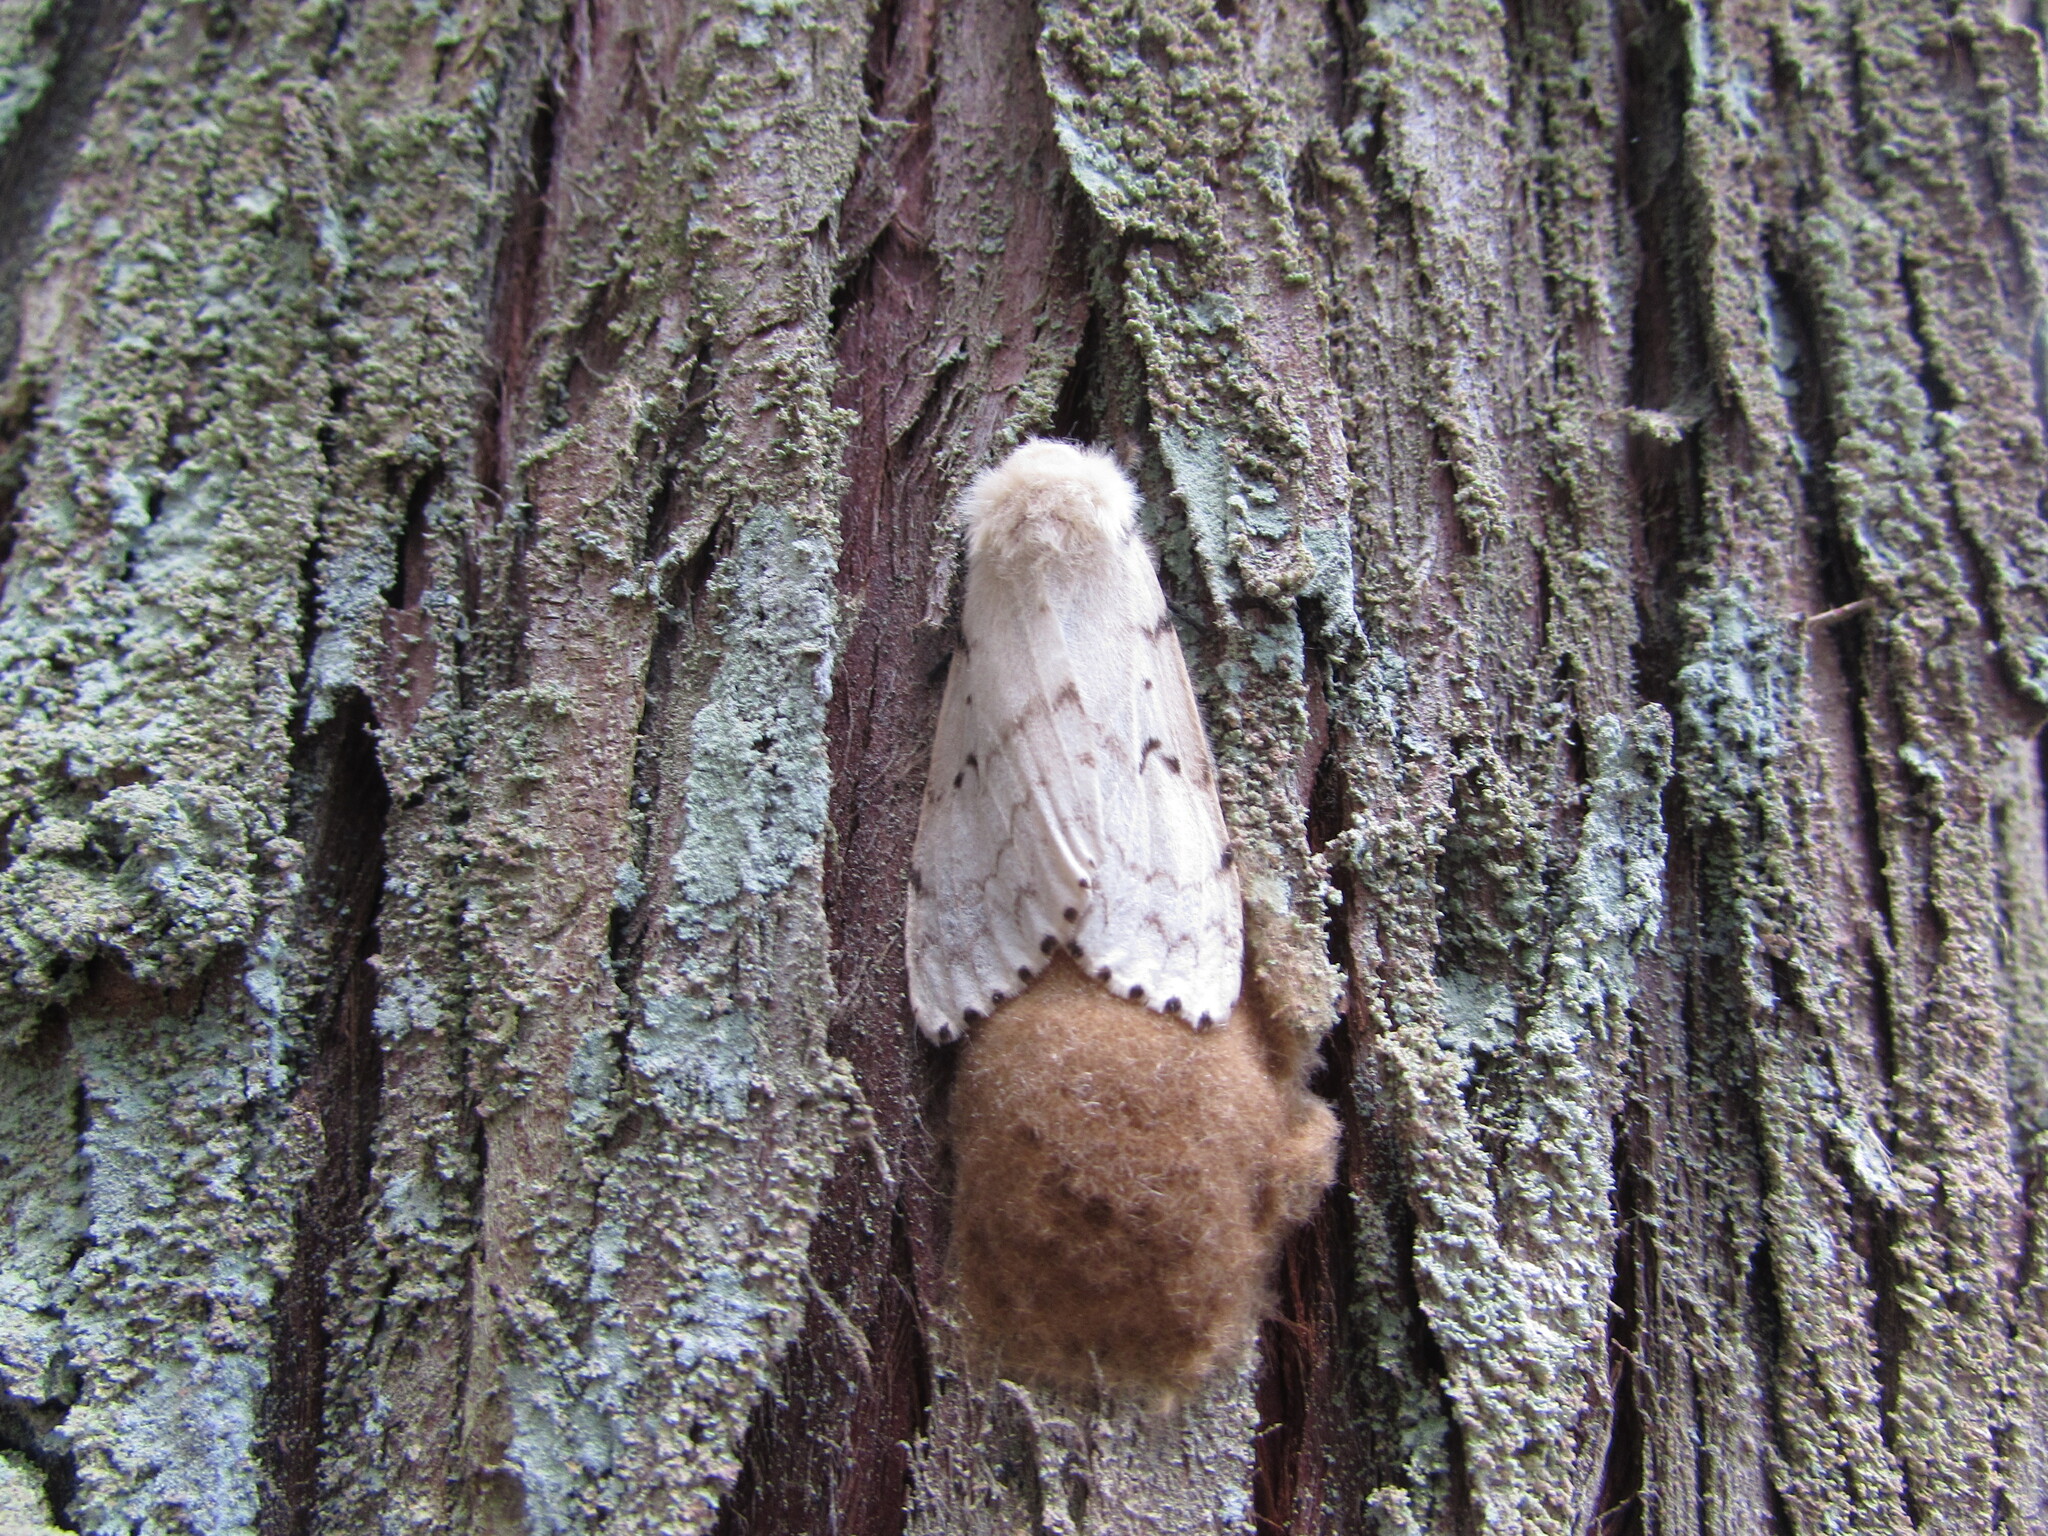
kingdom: Animalia
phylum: Arthropoda
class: Insecta
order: Lepidoptera
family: Erebidae
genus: Lymantria
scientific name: Lymantria dispar
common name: Gypsy moth
